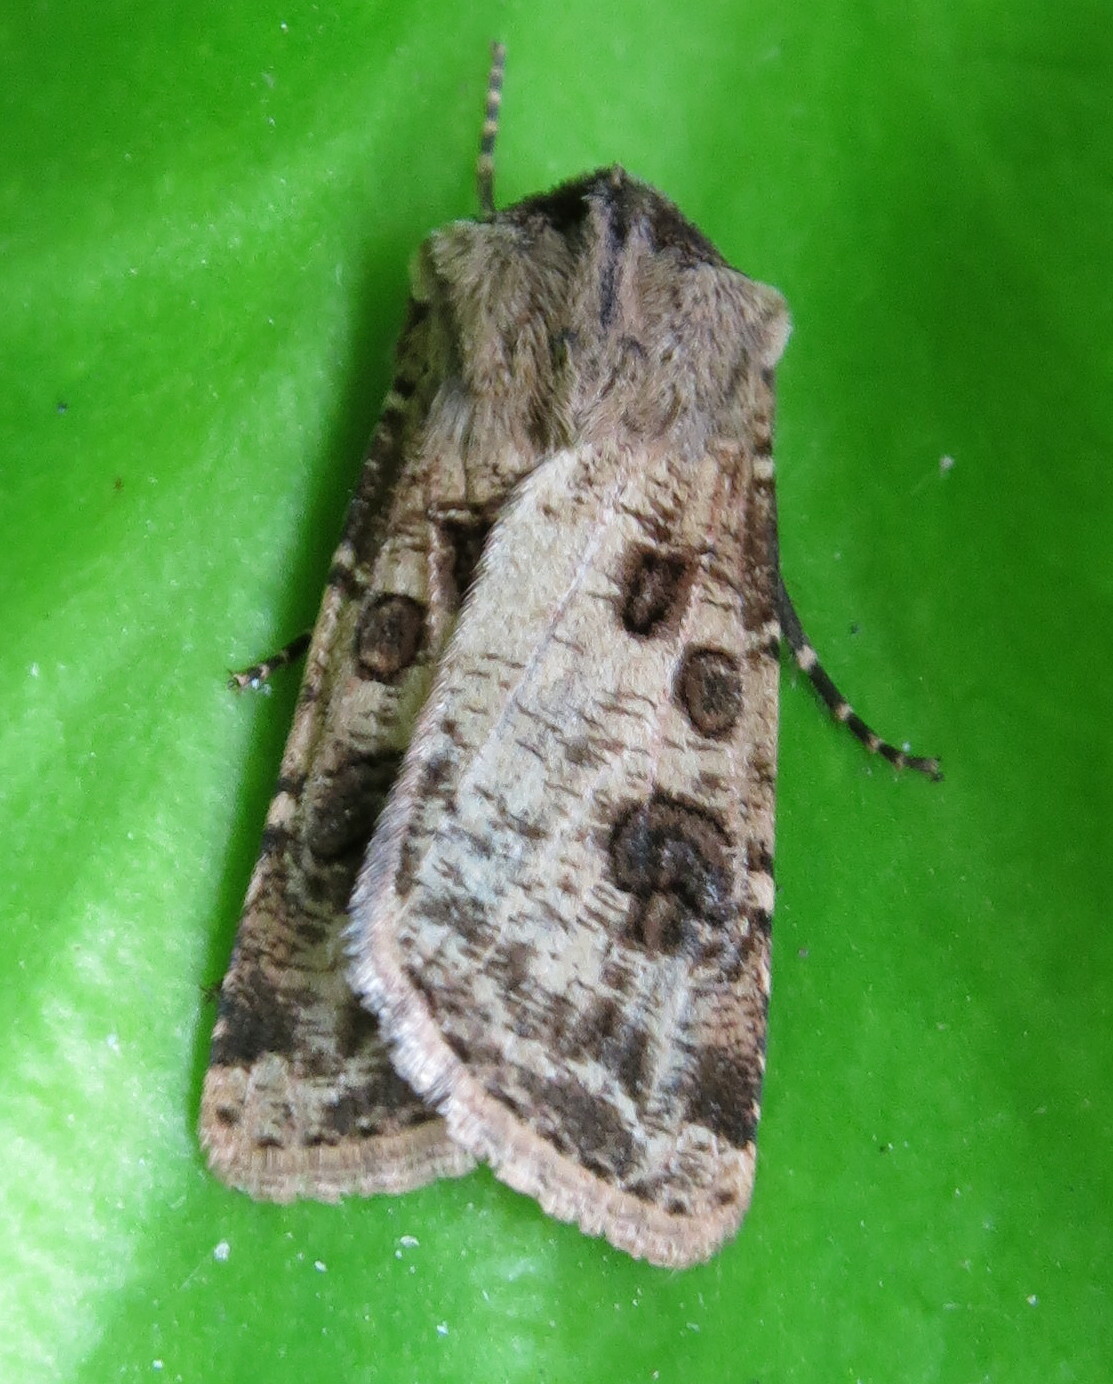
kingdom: Animalia
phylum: Arthropoda
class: Insecta
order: Lepidoptera
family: Noctuidae
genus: Agrotis
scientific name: Agrotis clavis
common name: Heart and club
